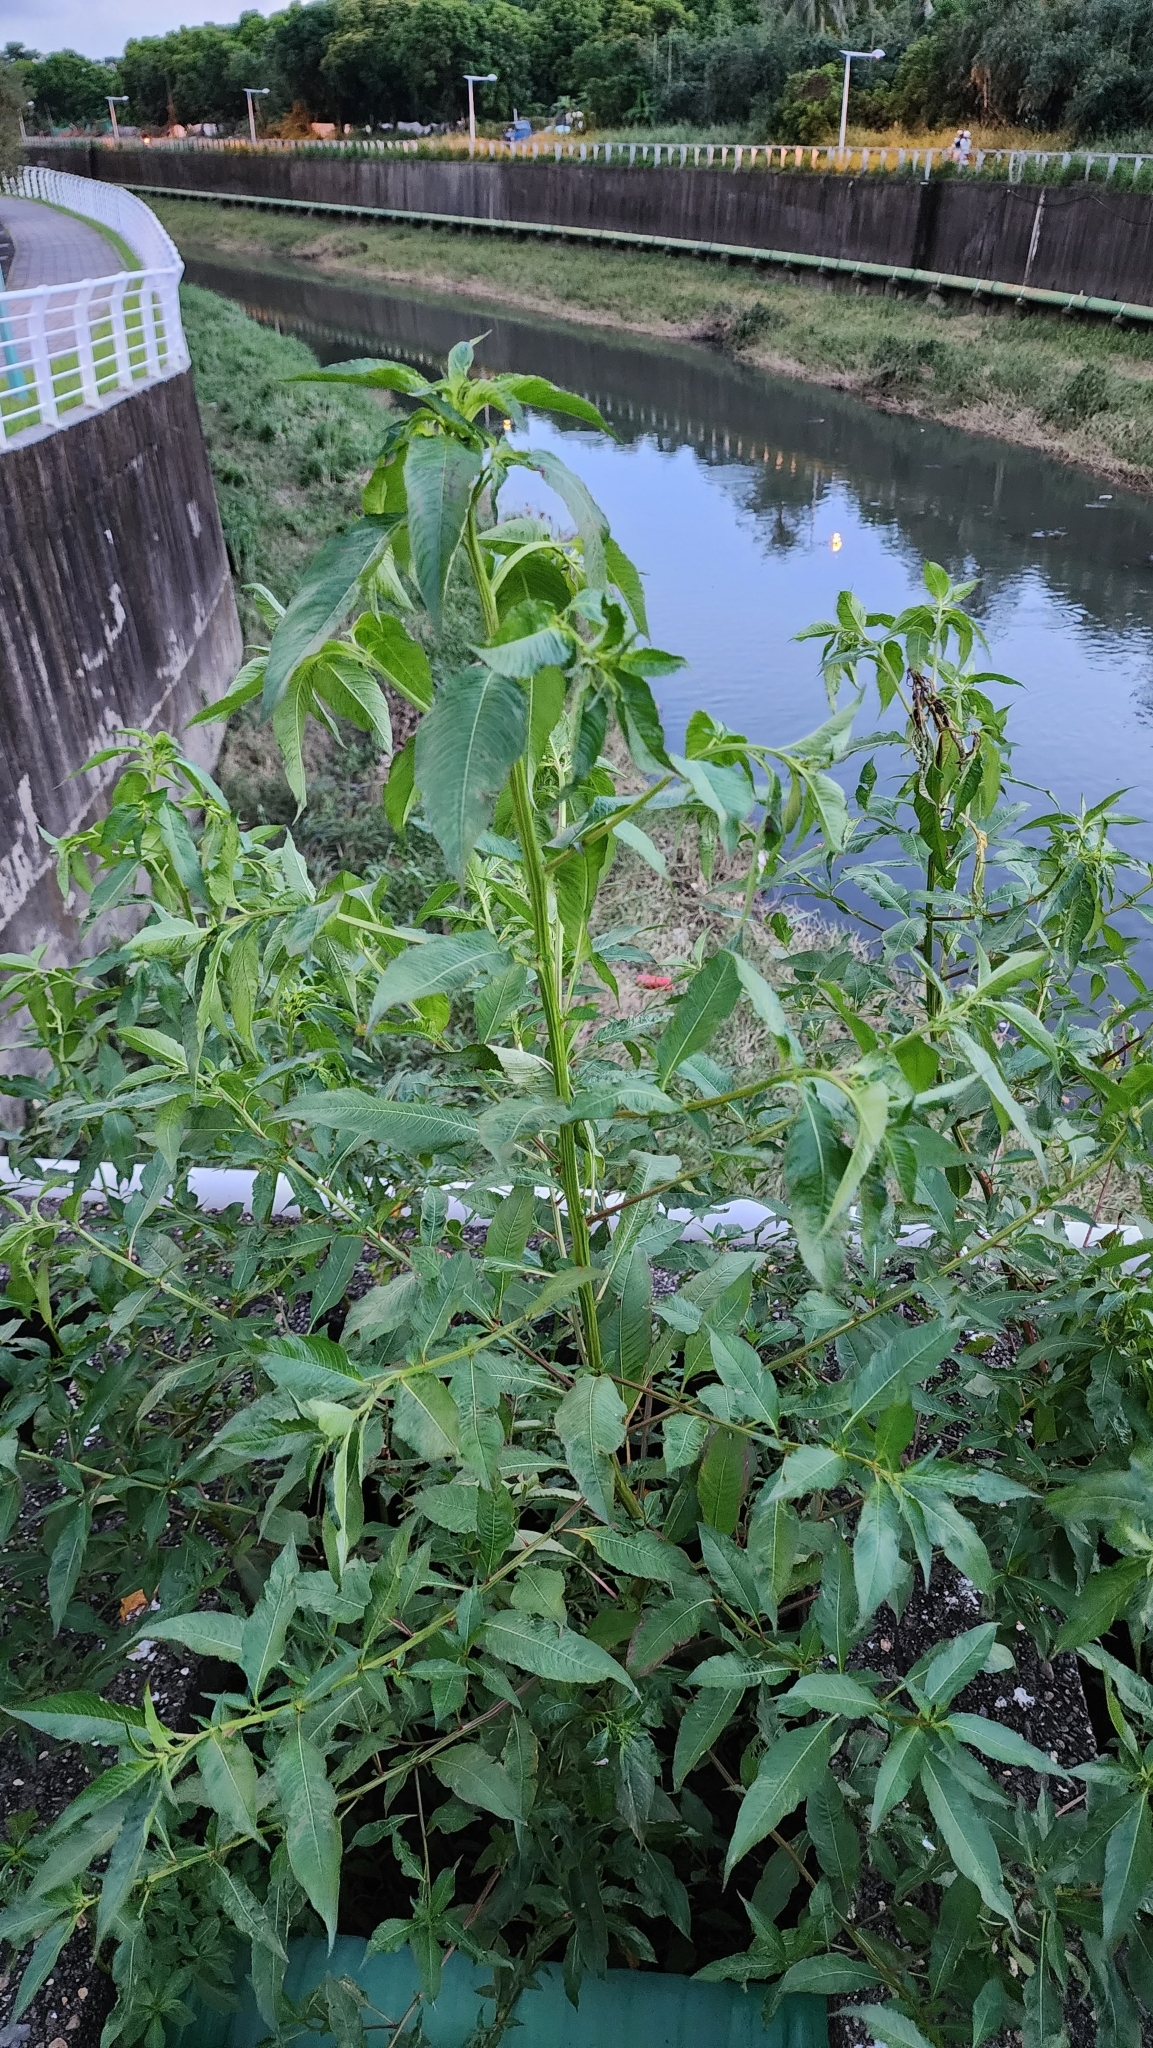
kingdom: Plantae
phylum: Tracheophyta
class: Magnoliopsida
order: Myrtales
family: Onagraceae
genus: Ludwigia
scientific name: Ludwigia hyssopifolia
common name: Linear leaf water primrose
